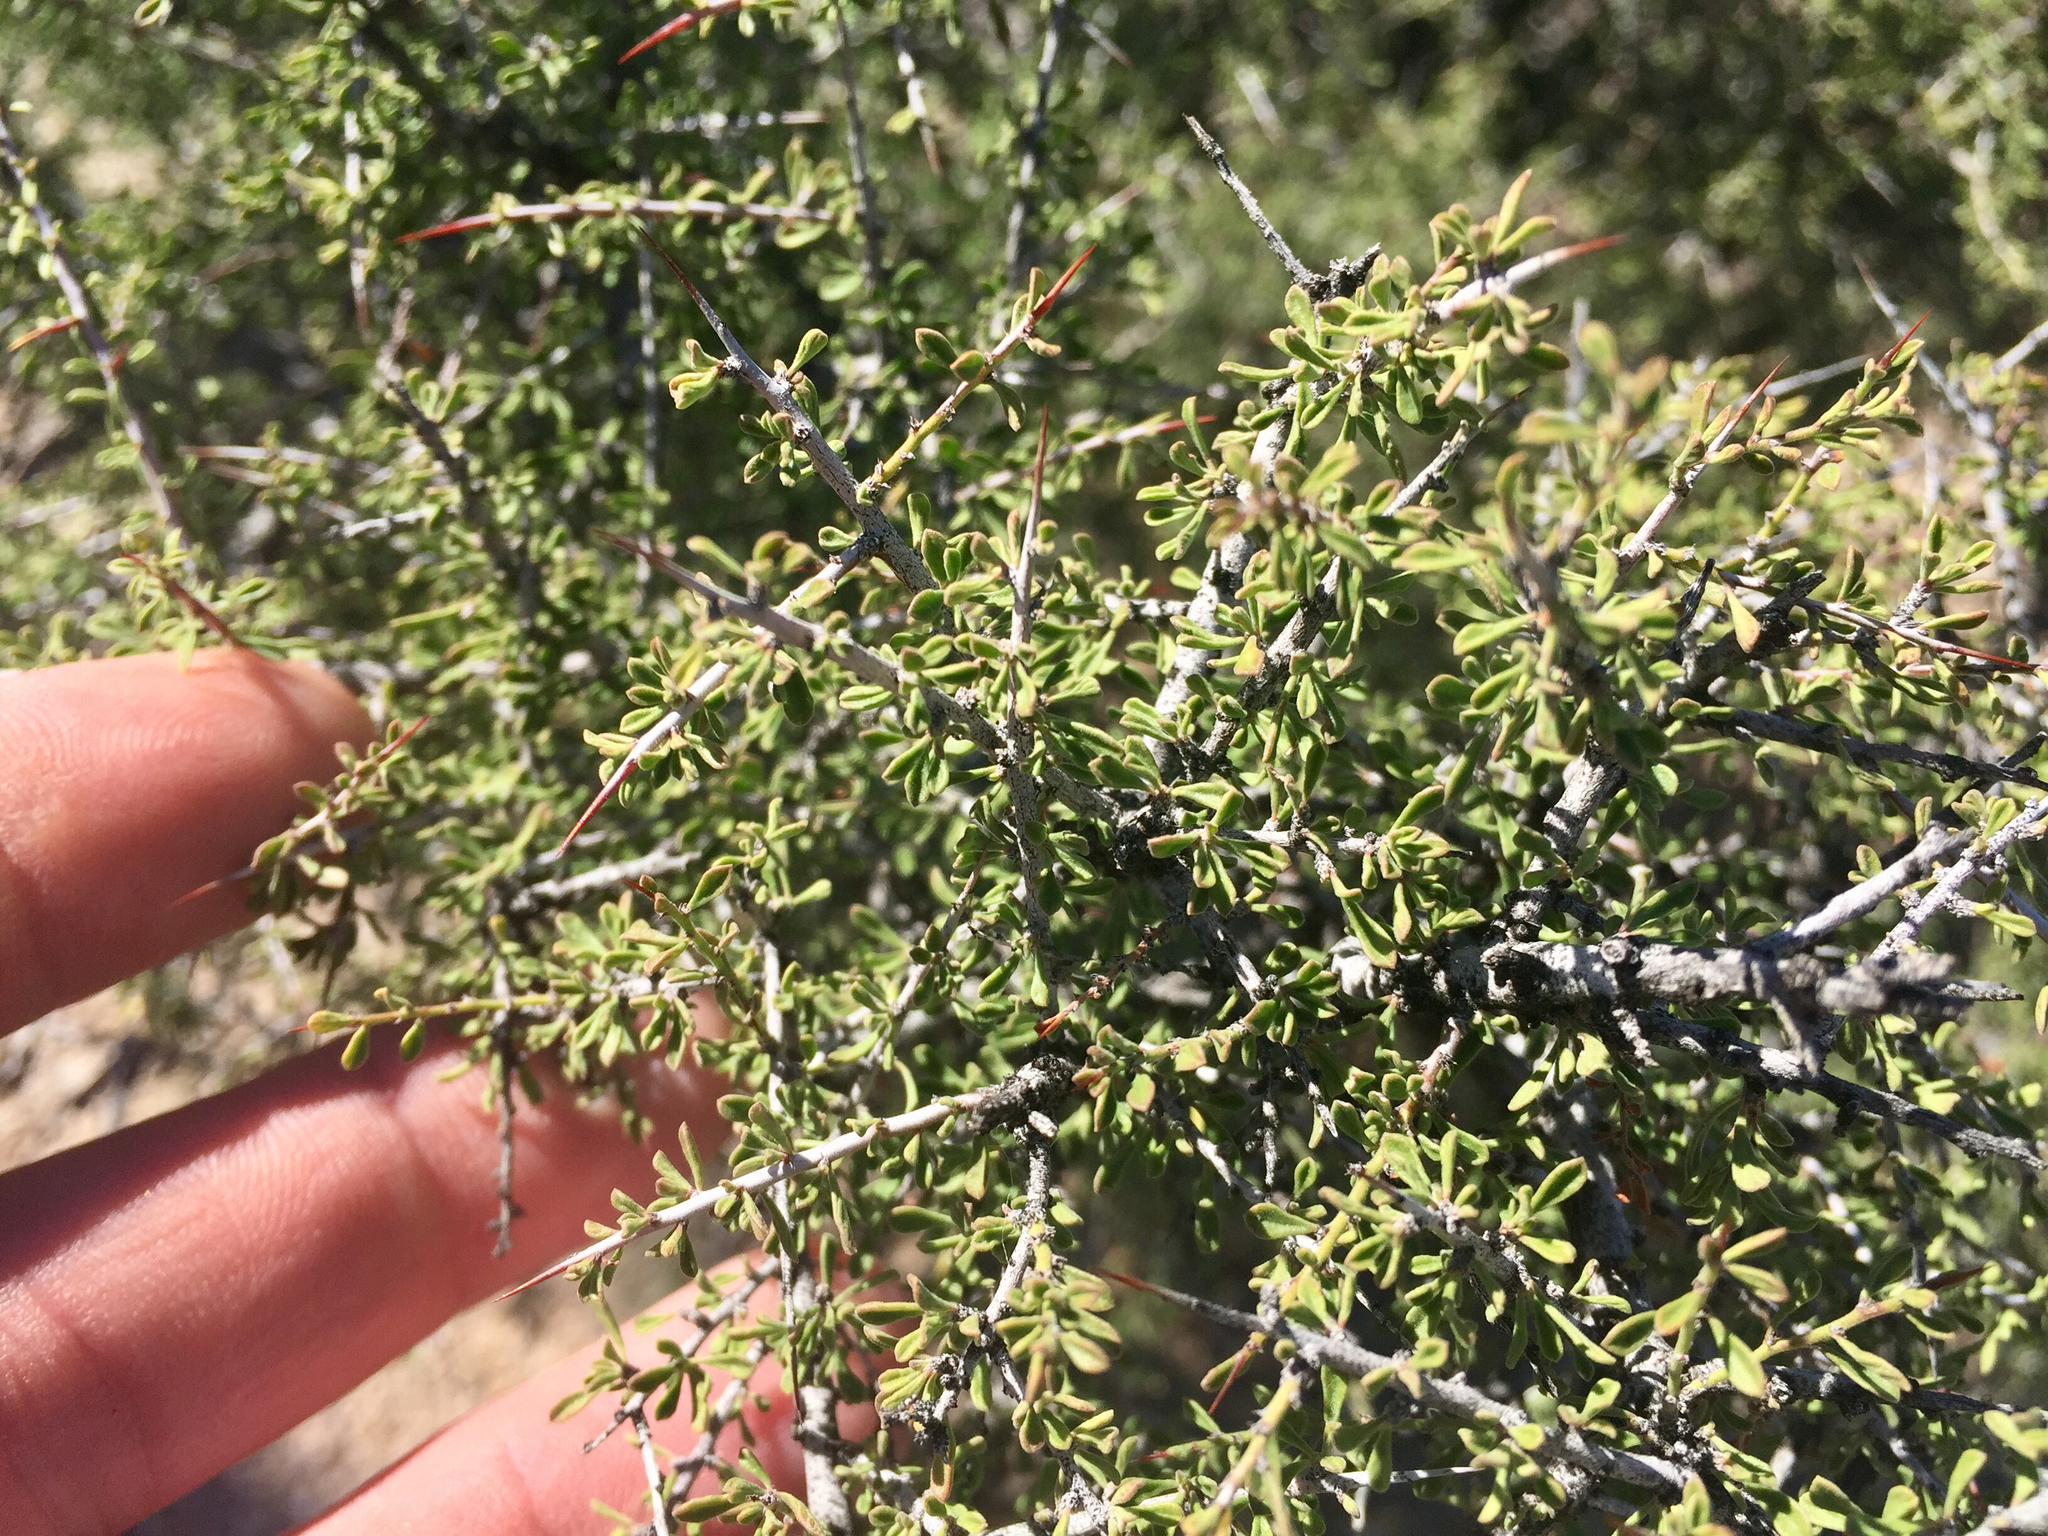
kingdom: Plantae
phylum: Tracheophyta
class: Magnoliopsida
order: Rosales
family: Rhamnaceae
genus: Condalia
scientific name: Condalia warnockii
